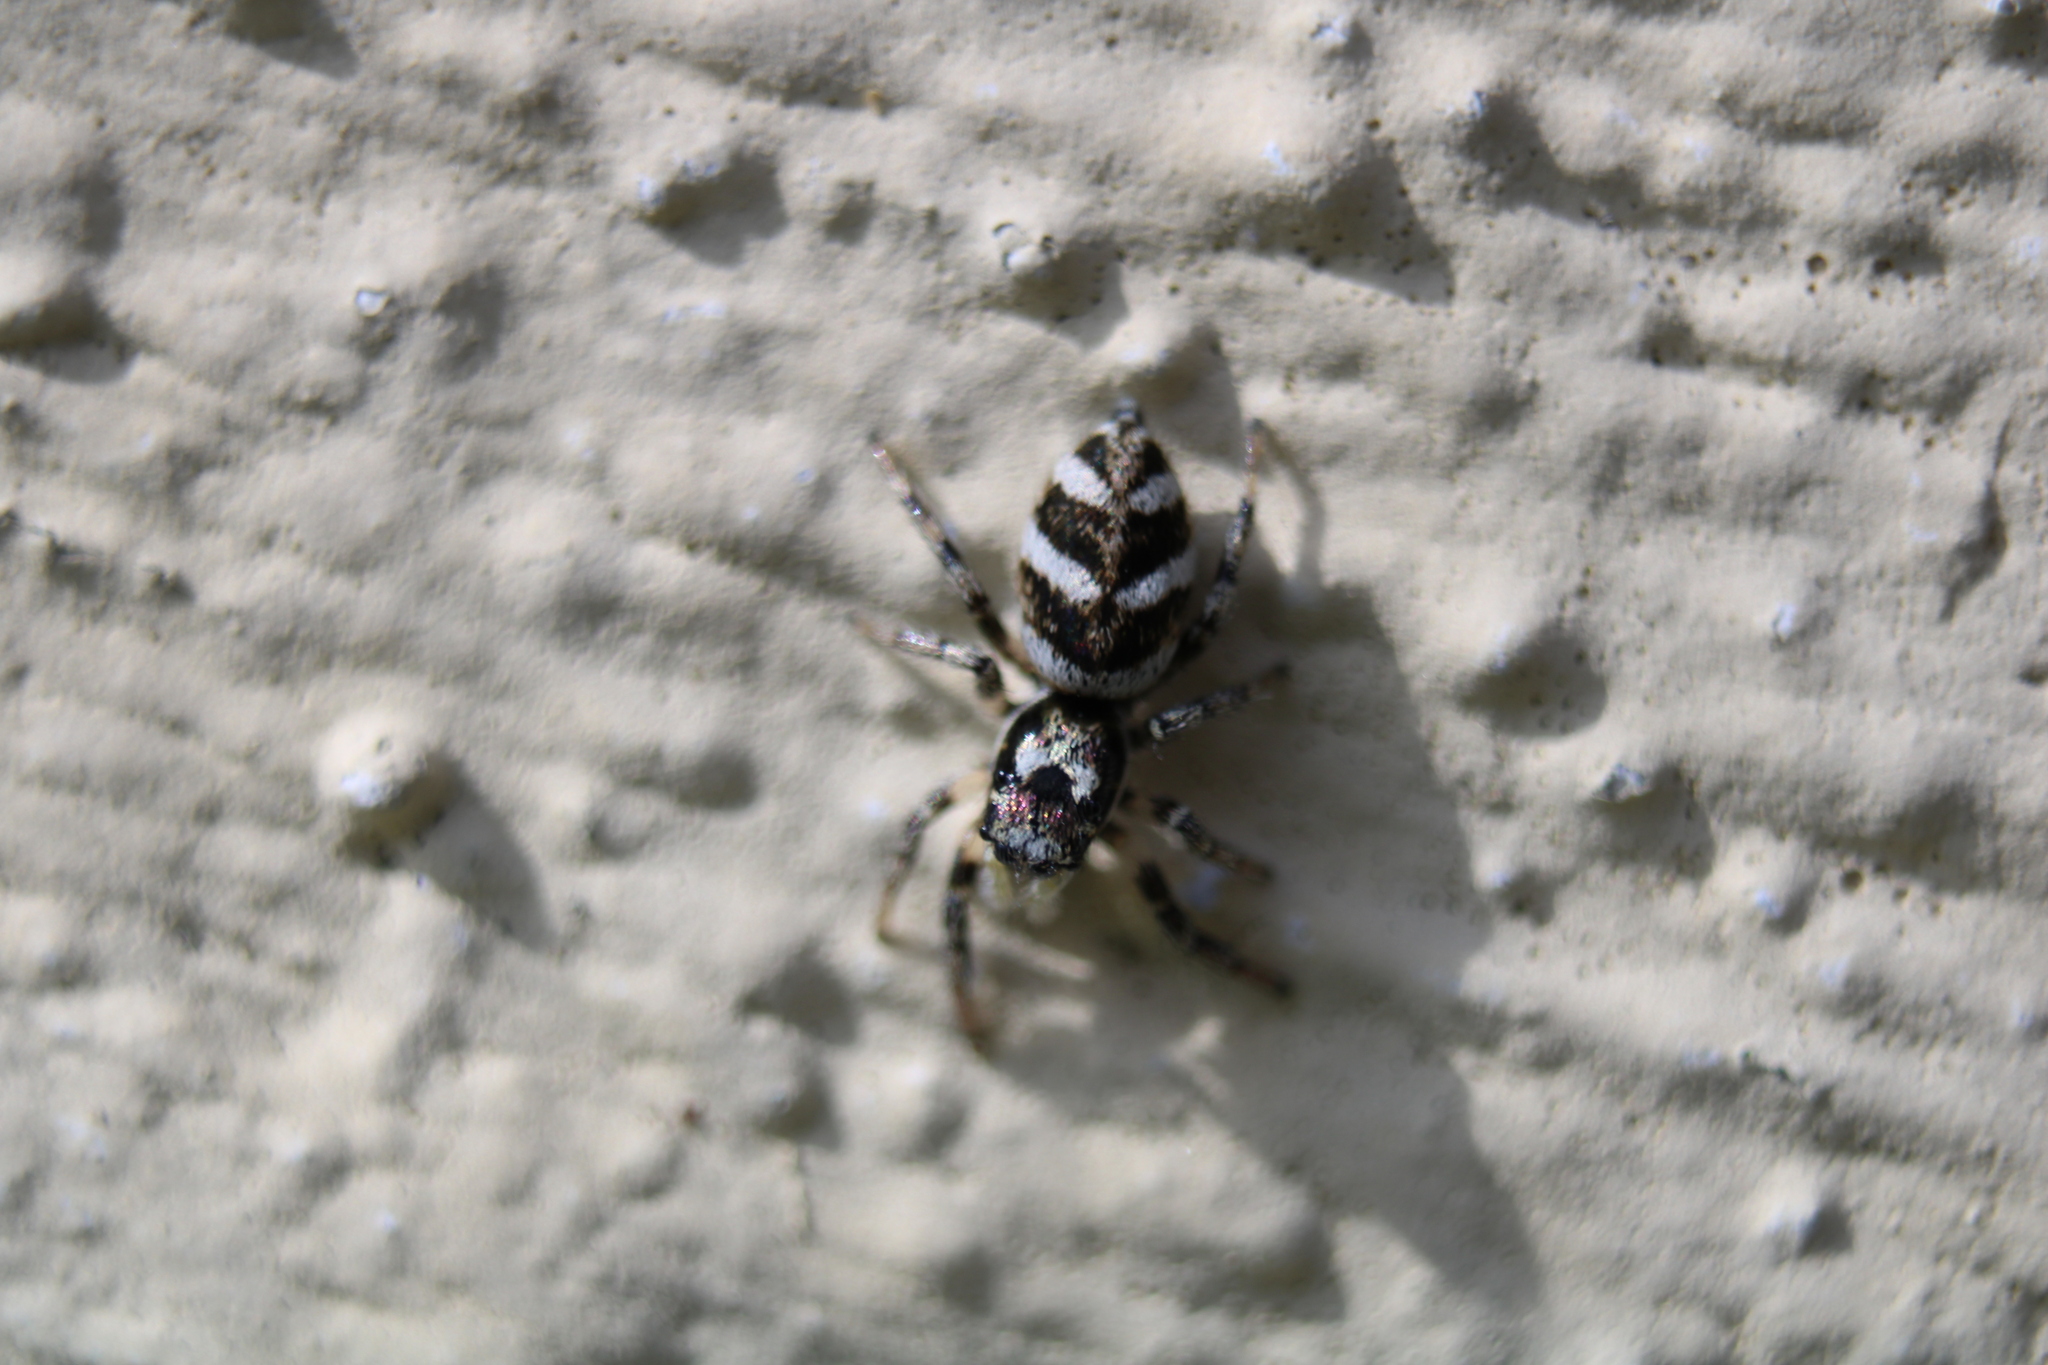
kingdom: Animalia
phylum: Arthropoda
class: Arachnida
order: Araneae
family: Salticidae
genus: Salticus
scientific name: Salticus scenicus
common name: Zebra jumper
